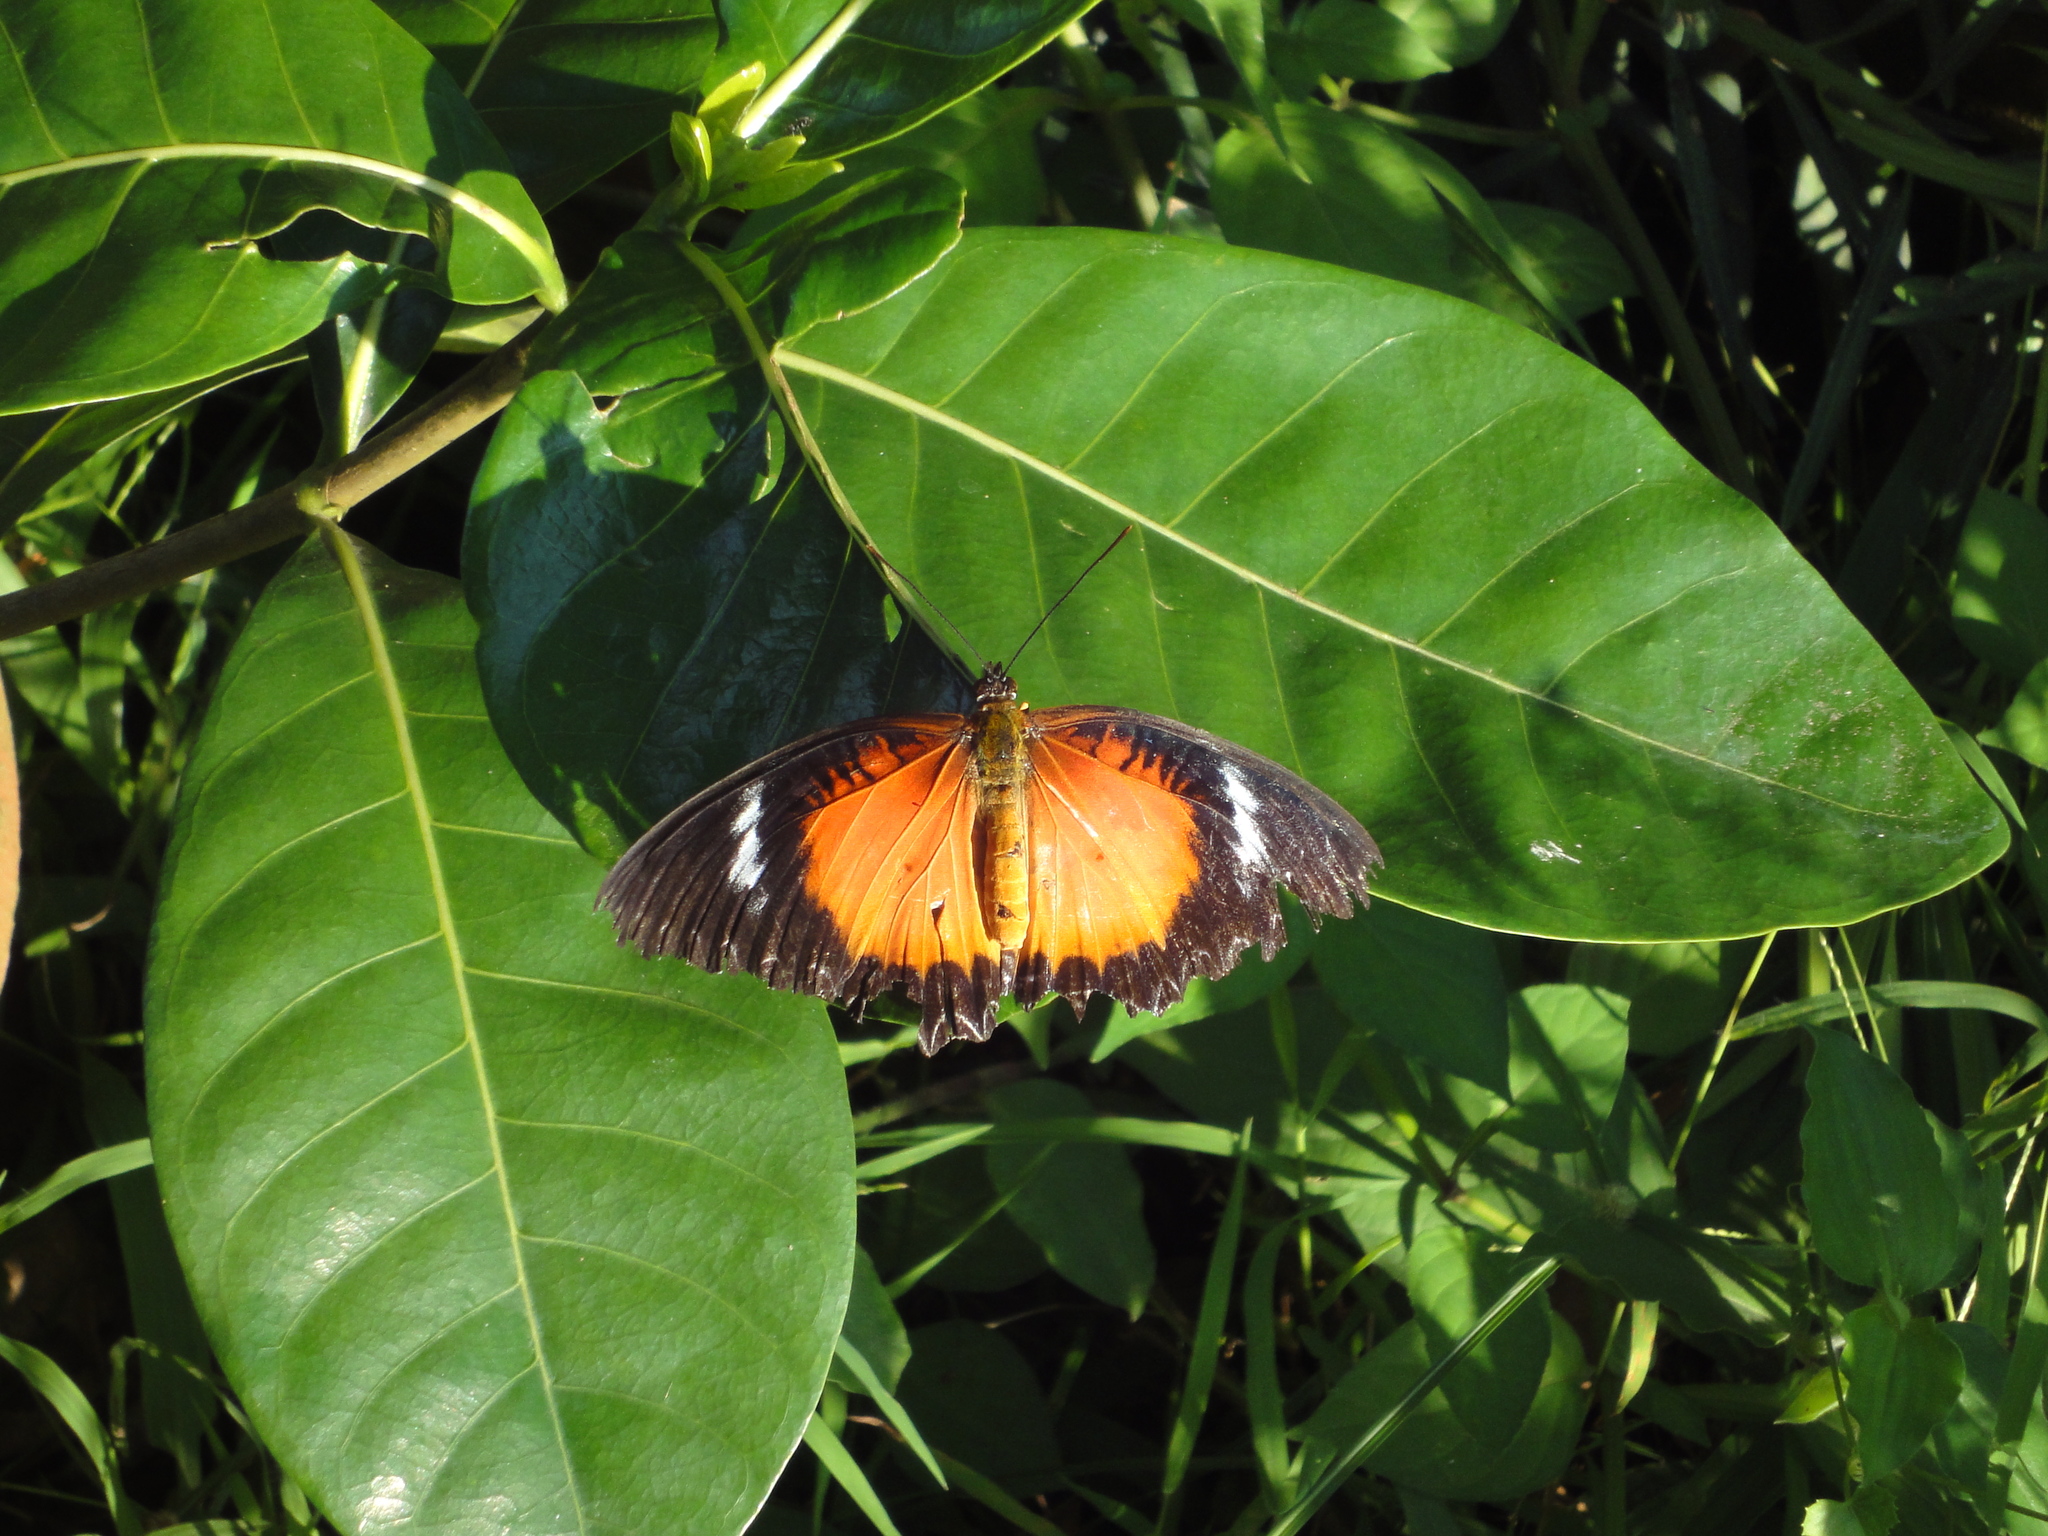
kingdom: Animalia
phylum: Arthropoda
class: Insecta
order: Lepidoptera
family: Nymphalidae
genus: Cethosia
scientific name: Cethosia luzonica
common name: Luzon lacewing
